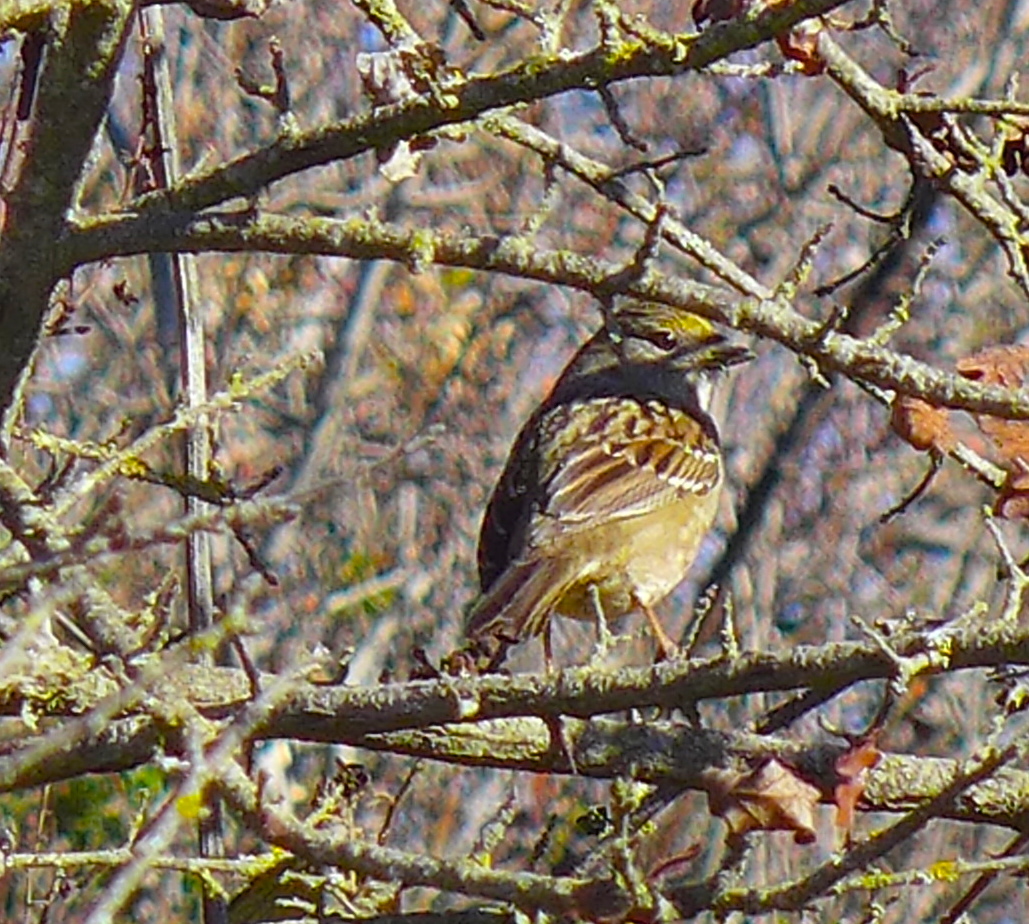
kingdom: Animalia
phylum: Chordata
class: Aves
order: Passeriformes
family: Passerellidae
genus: Zonotrichia
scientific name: Zonotrichia atricapilla
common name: Golden-crowned sparrow
